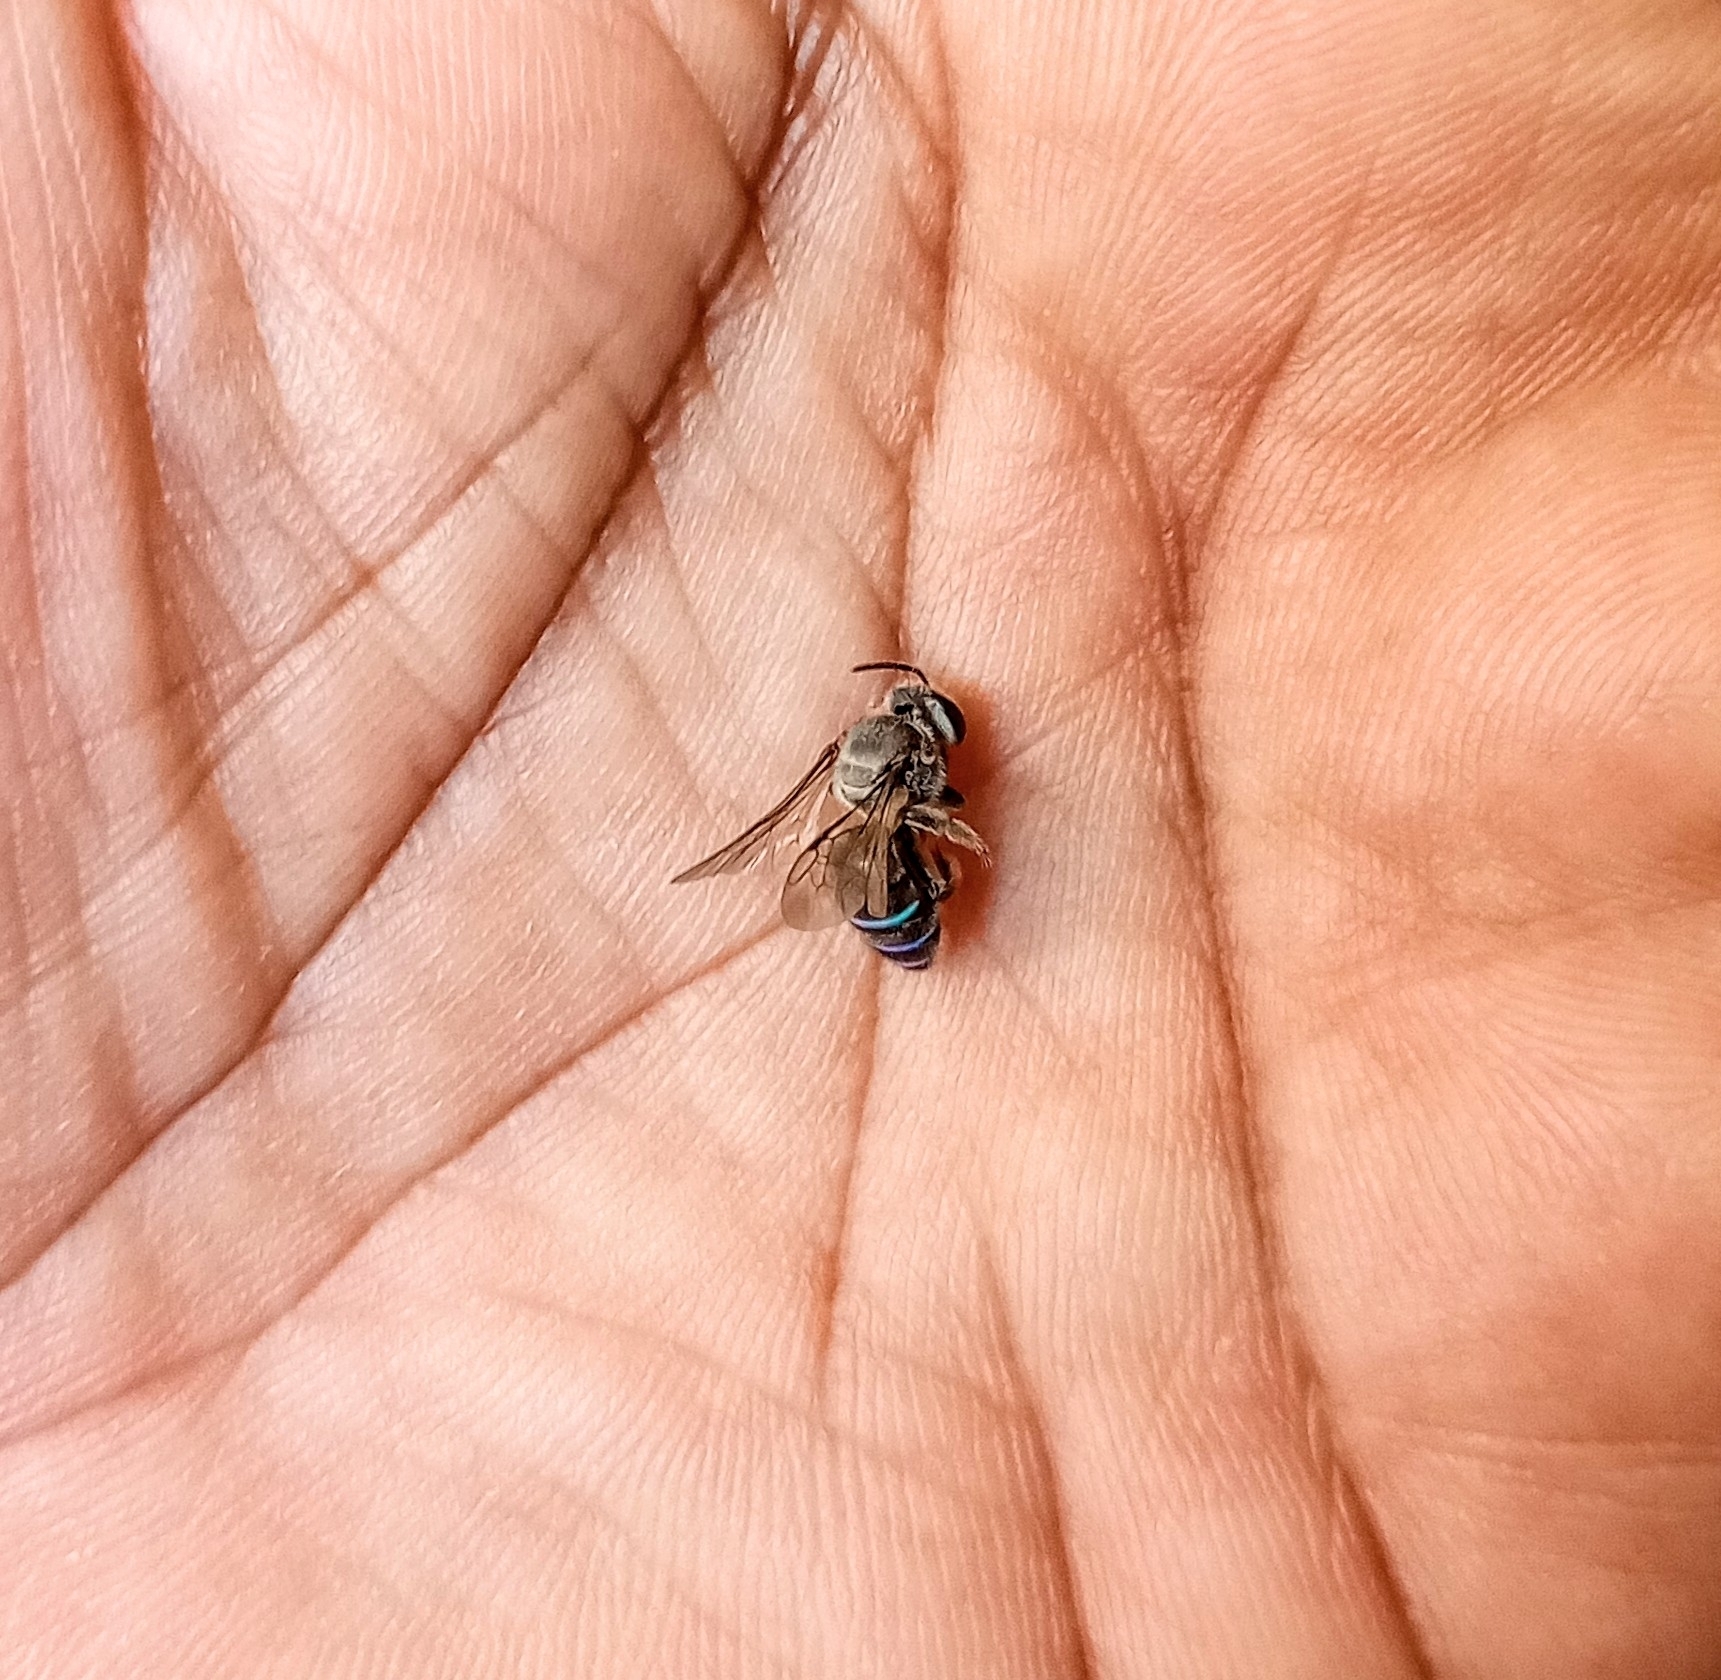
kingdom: Animalia
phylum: Arthropoda
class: Insecta
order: Hymenoptera
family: Halictidae
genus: Nomia
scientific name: Nomia iridescens
